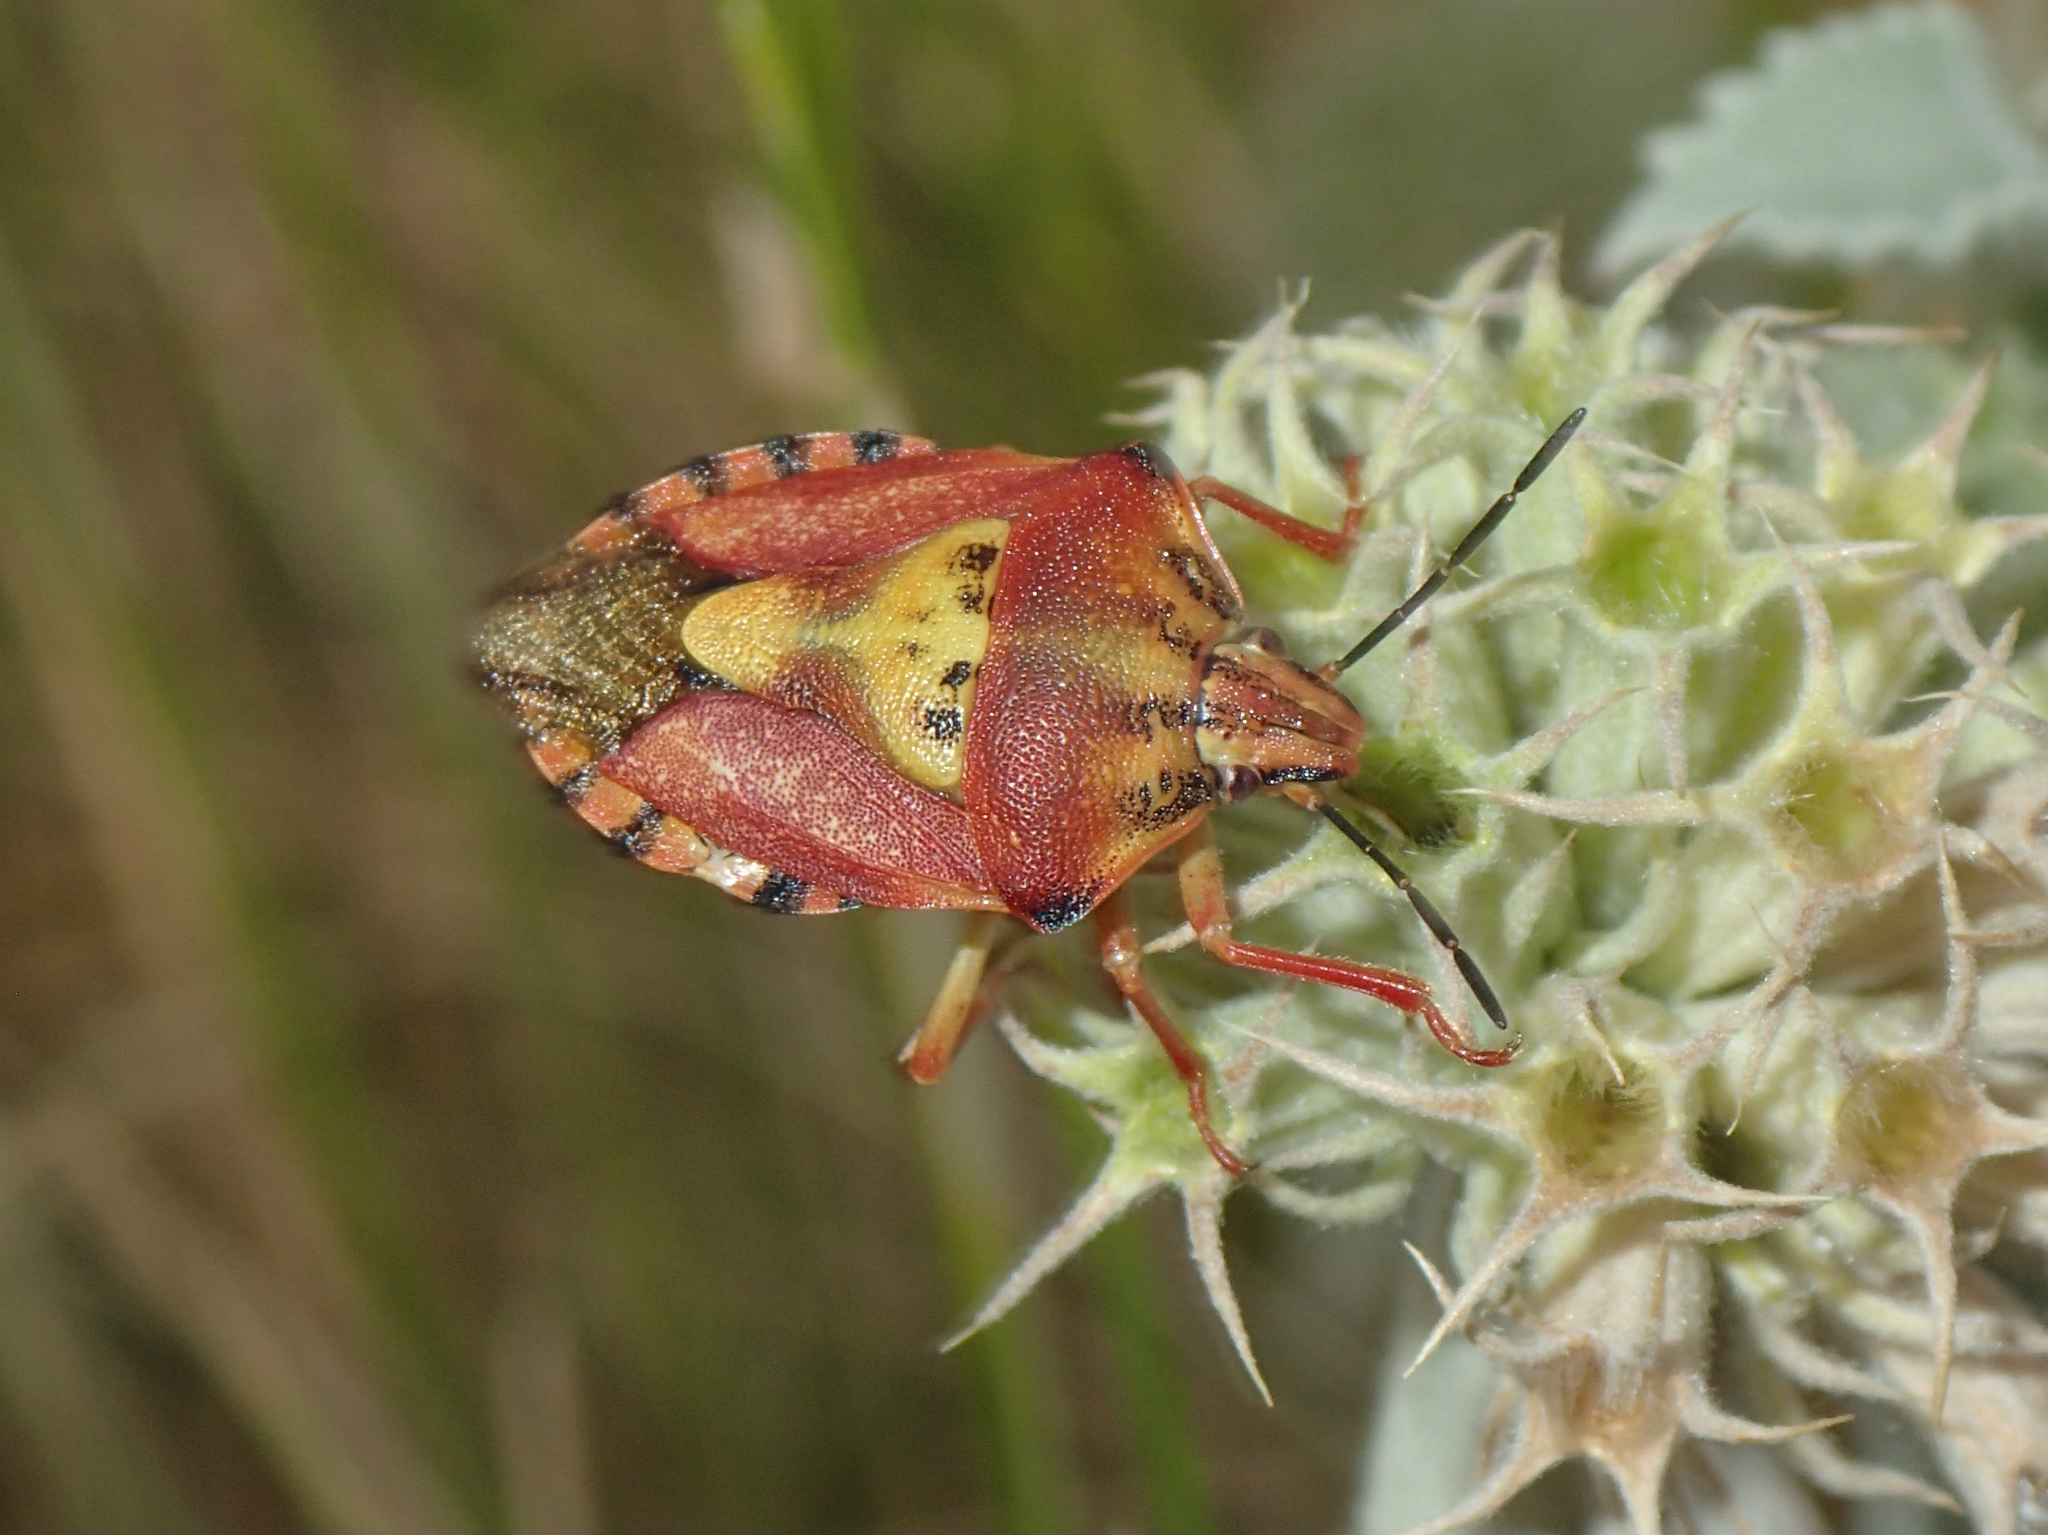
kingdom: Animalia
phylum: Arthropoda
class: Insecta
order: Hemiptera
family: Pentatomidae
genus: Carpocoris
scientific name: Carpocoris purpureipennis
